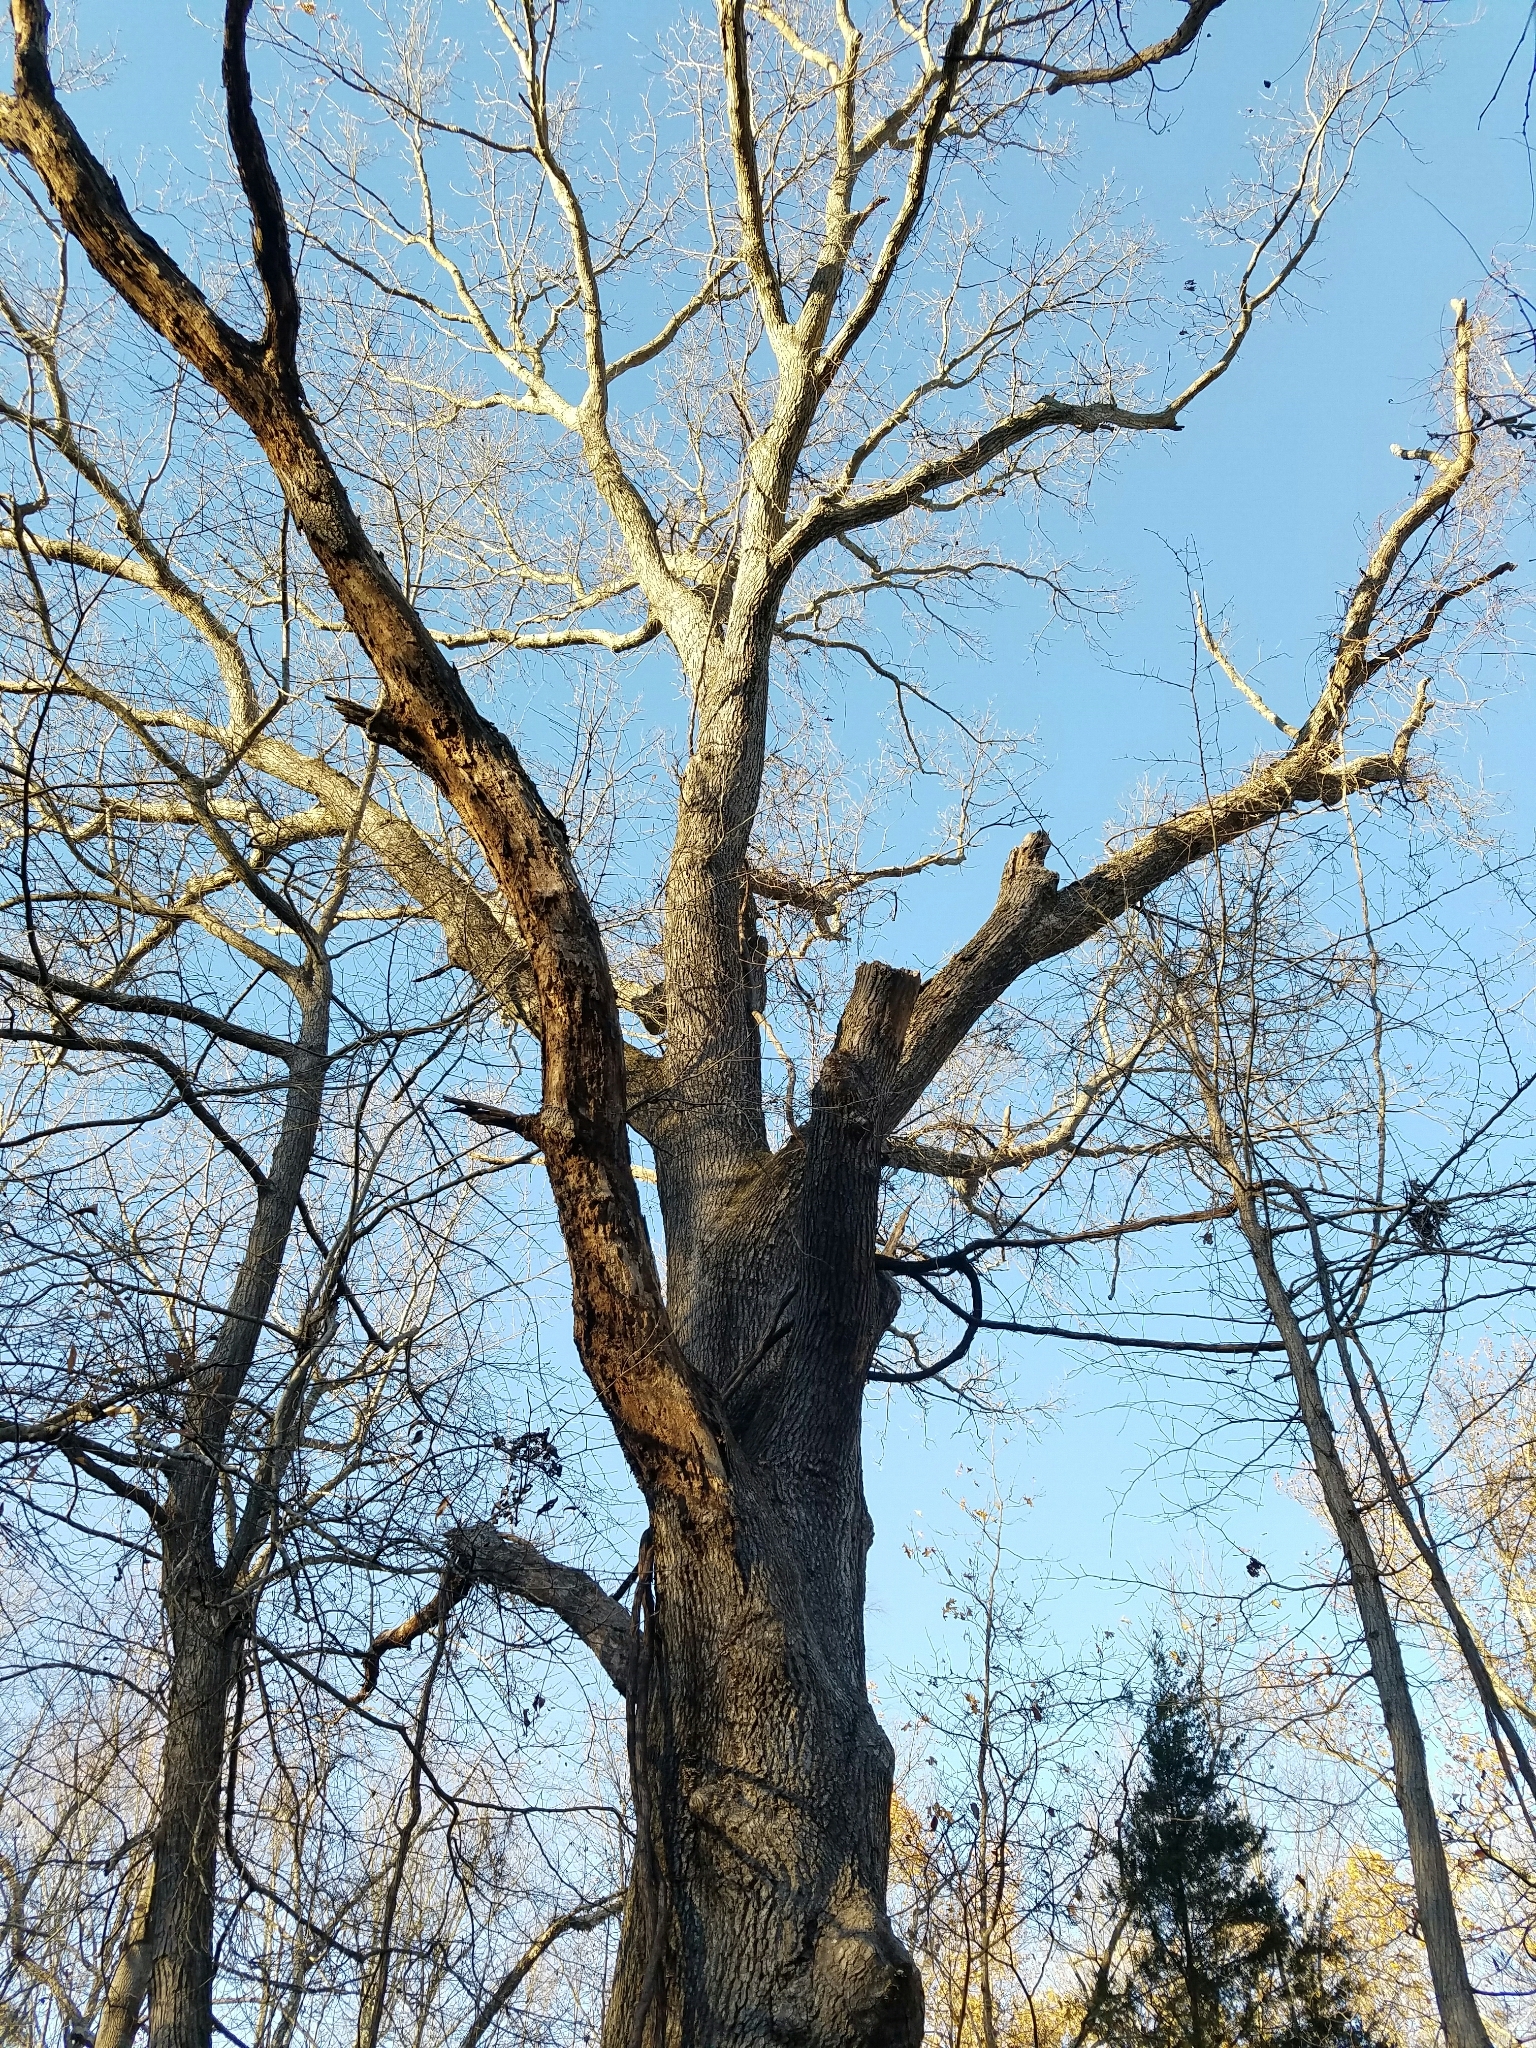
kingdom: Plantae
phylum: Tracheophyta
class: Magnoliopsida
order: Fagales
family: Fagaceae
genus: Quercus
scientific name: Quercus velutina
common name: Black oak
